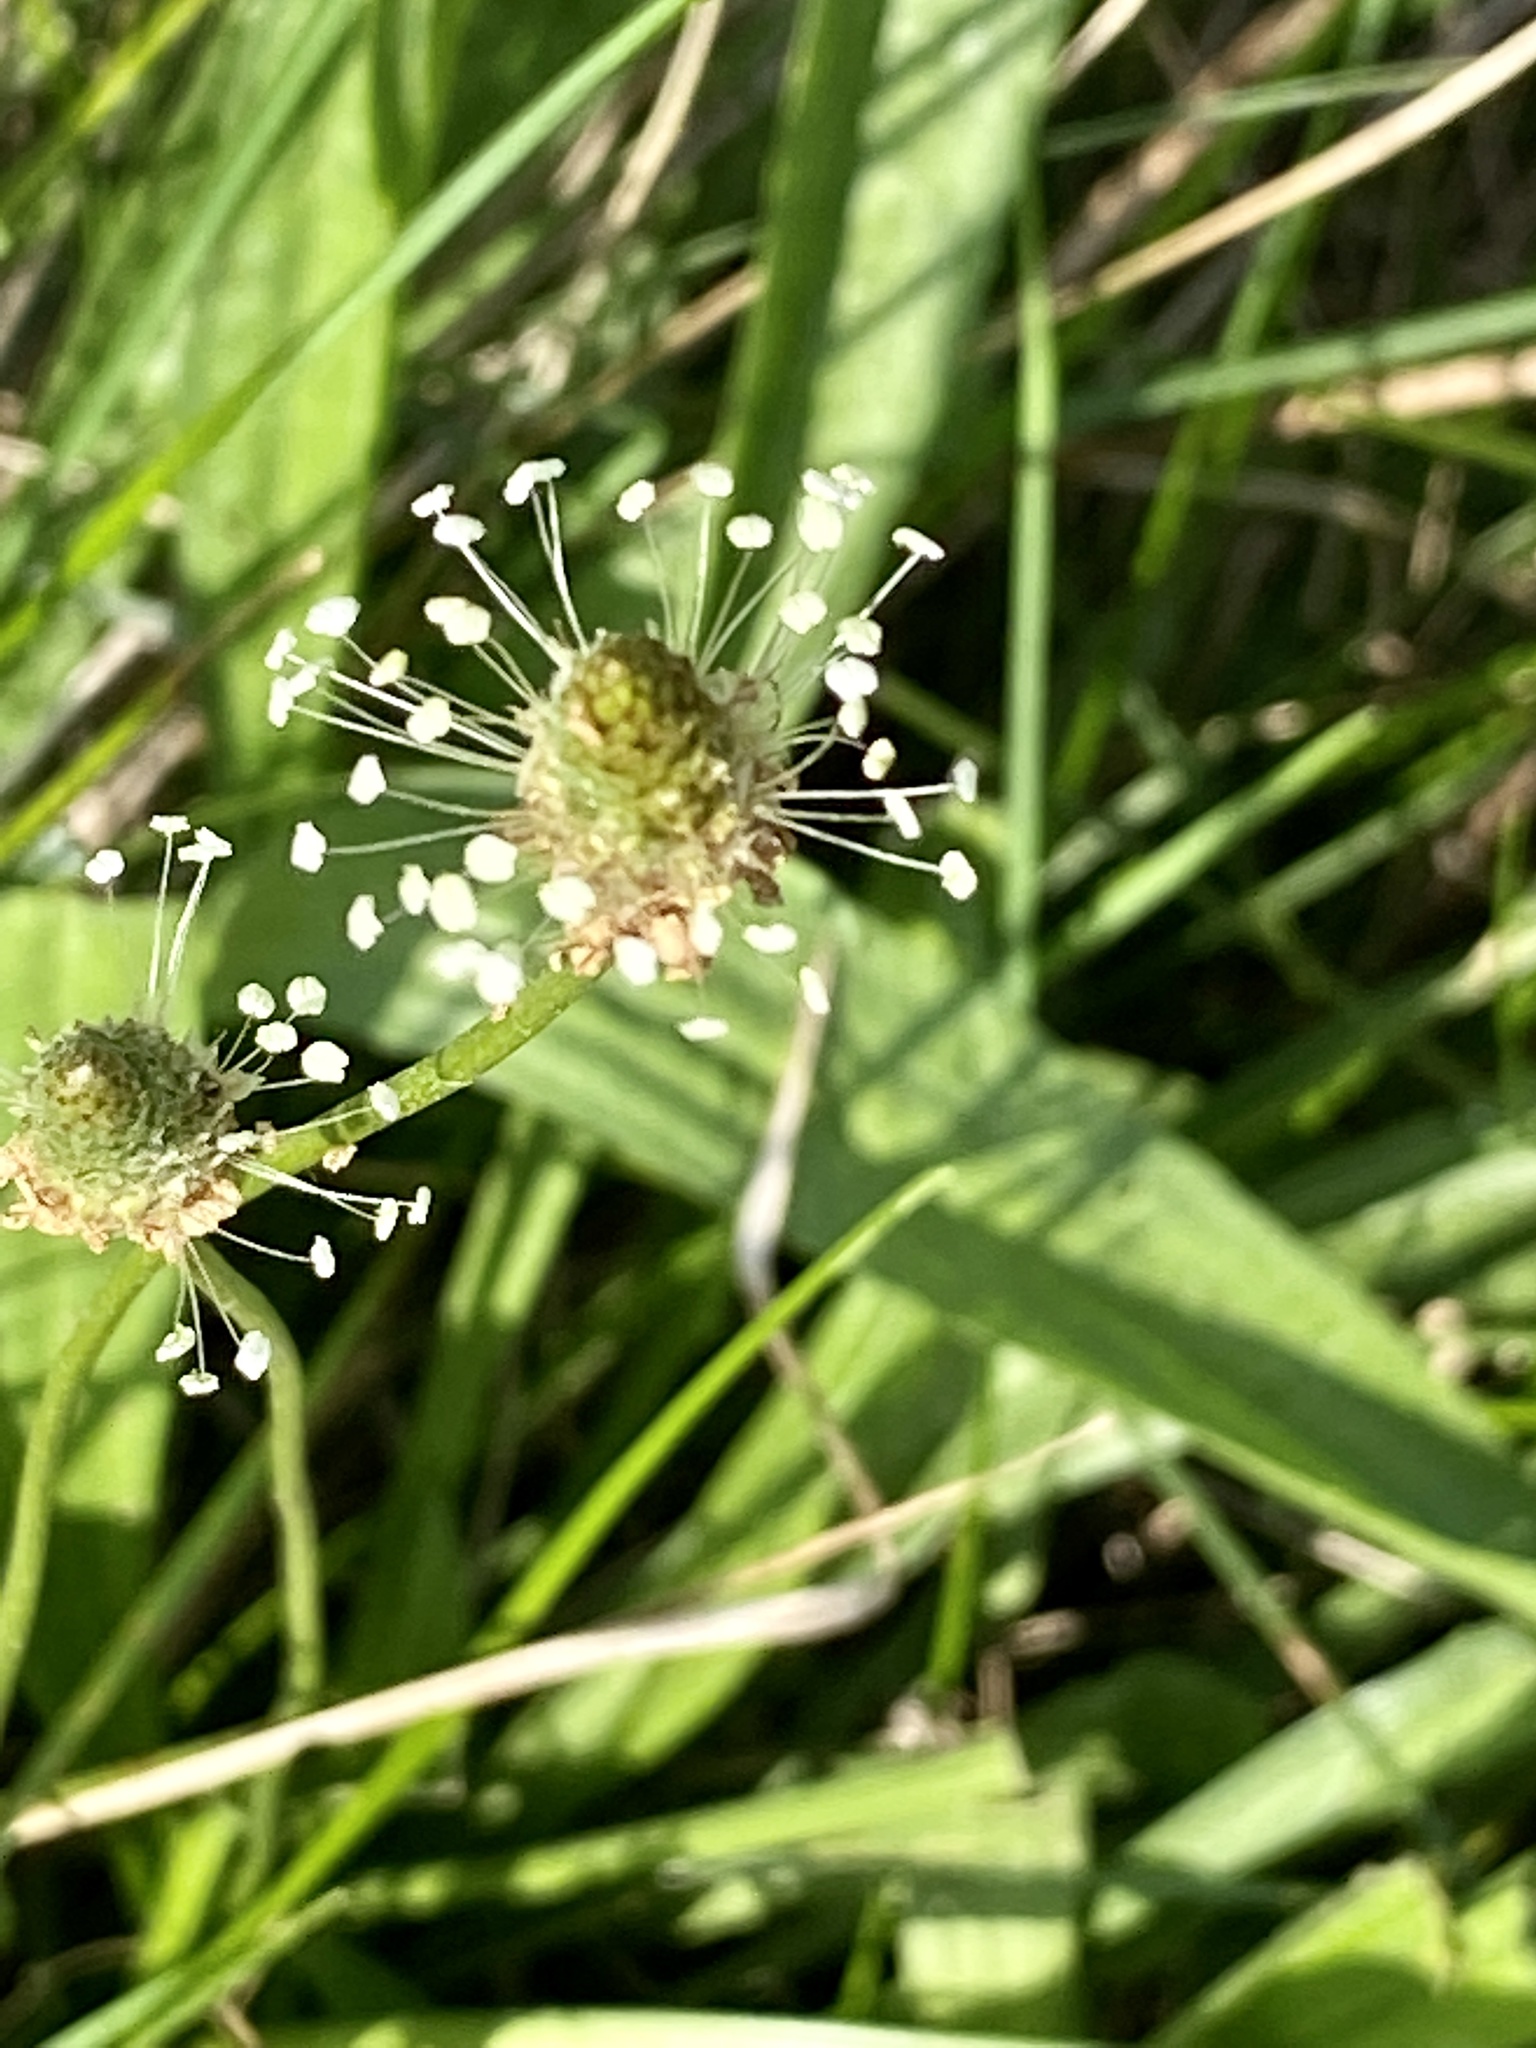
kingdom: Plantae
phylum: Tracheophyta
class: Magnoliopsida
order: Lamiales
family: Plantaginaceae
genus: Plantago
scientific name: Plantago lanceolata
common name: Ribwort plantain
